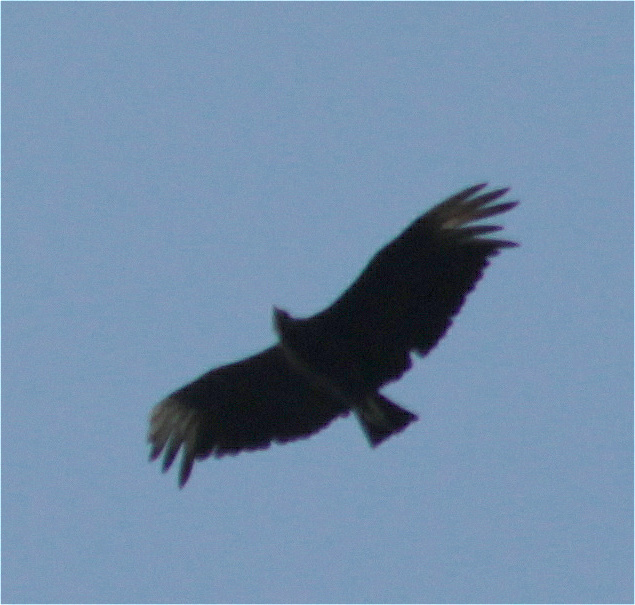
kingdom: Animalia
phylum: Chordata
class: Aves
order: Accipitriformes
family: Cathartidae
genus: Coragyps
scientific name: Coragyps atratus
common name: Black vulture
